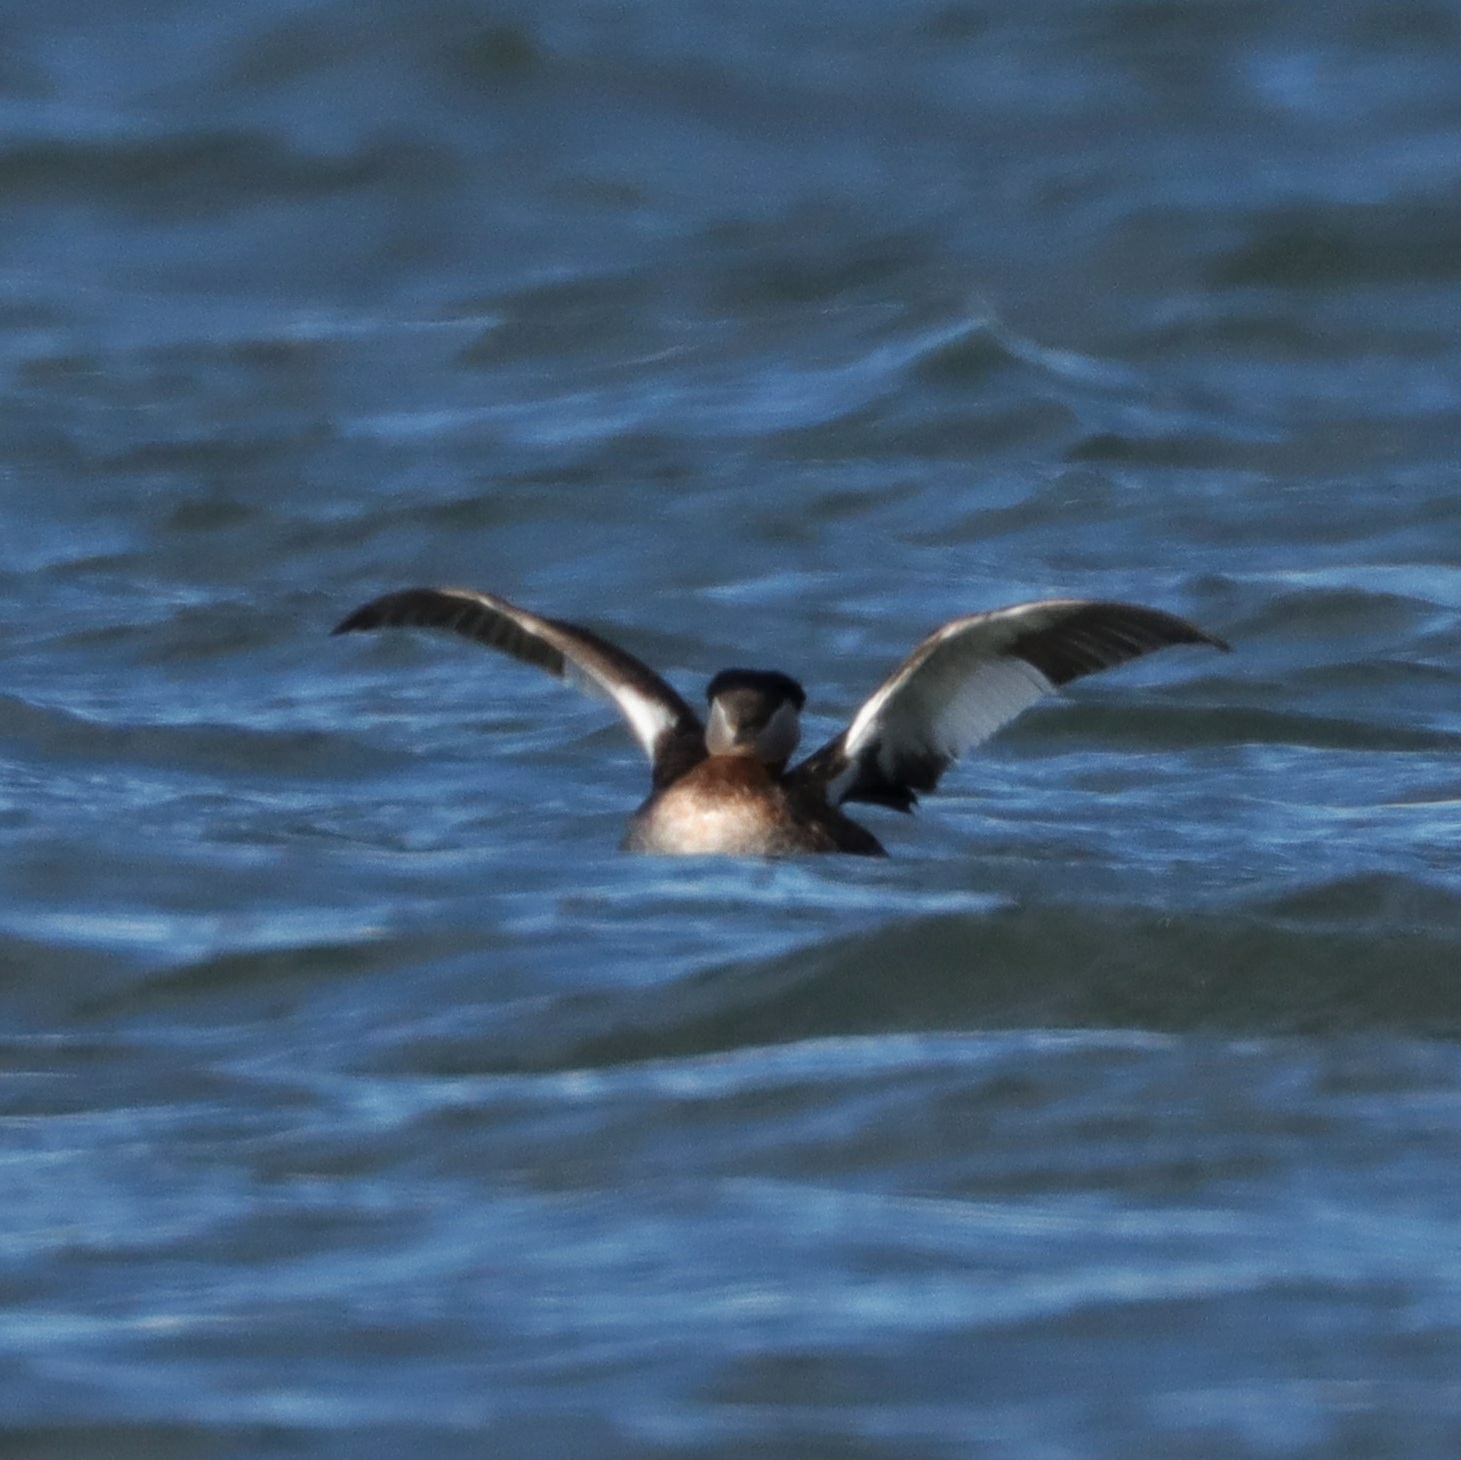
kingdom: Animalia
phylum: Chordata
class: Aves
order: Podicipediformes
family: Podicipedidae
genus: Podiceps
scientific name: Podiceps grisegena
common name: Red-necked grebe
